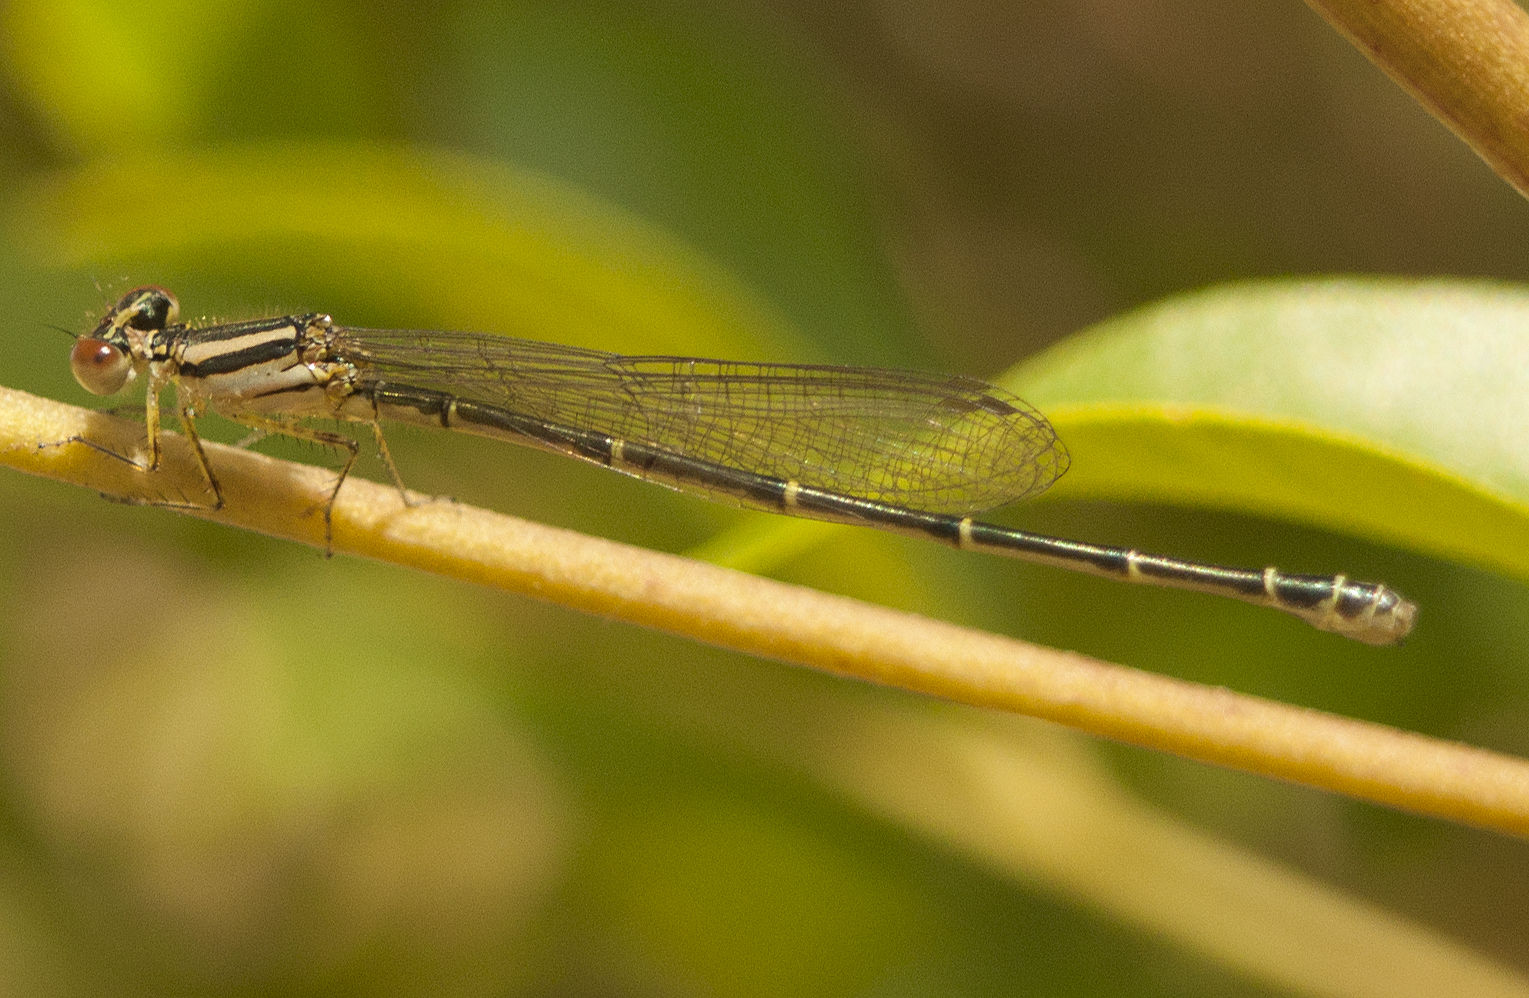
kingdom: Animalia
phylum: Arthropoda
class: Insecta
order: Odonata
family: Coenagrionidae
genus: Austroagrion
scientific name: Austroagrion watsoni
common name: Eastern billabongfly
